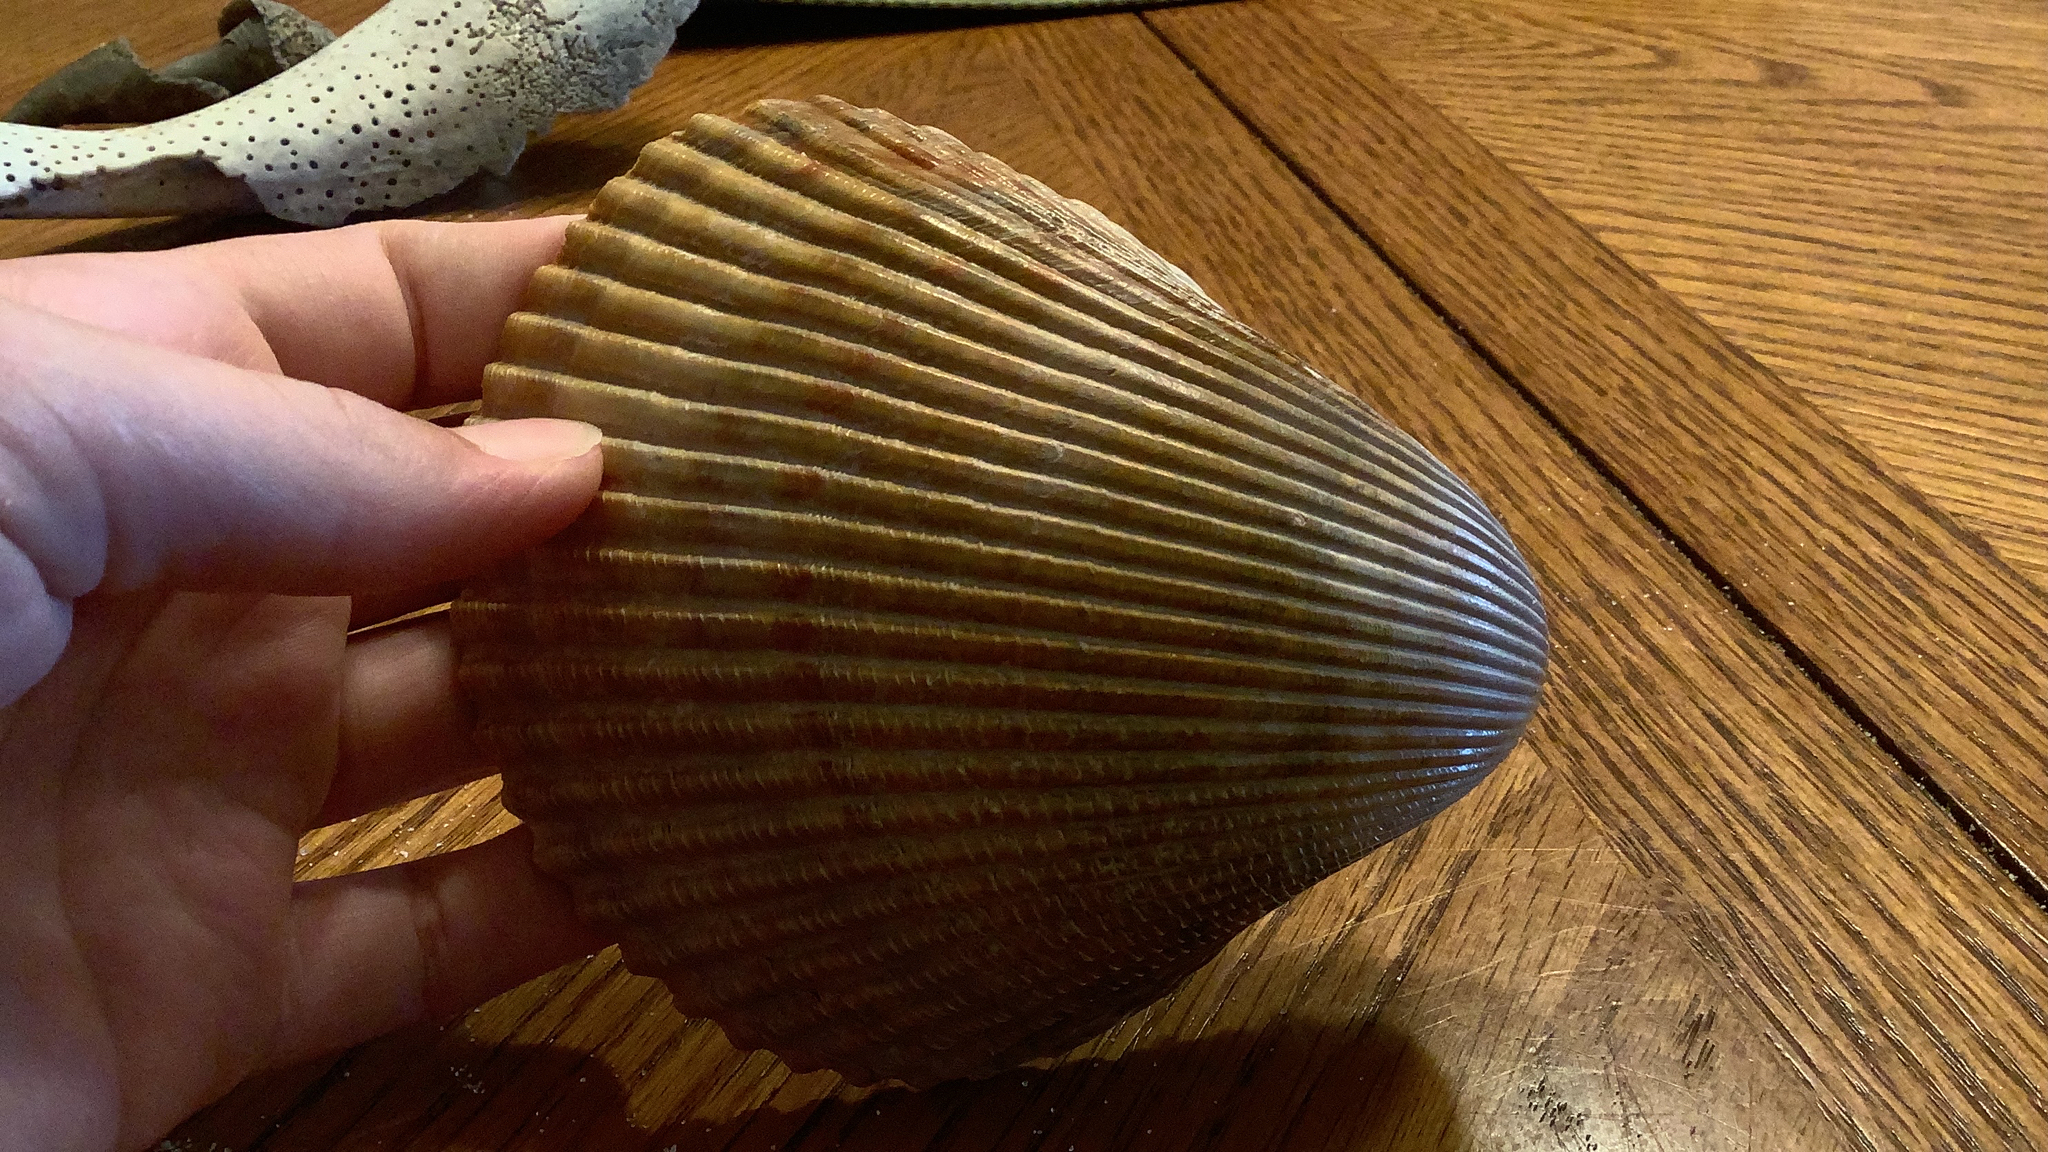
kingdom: Animalia
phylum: Mollusca
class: Bivalvia
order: Cardiida
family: Cardiidae
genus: Dinocardium
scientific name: Dinocardium robustum
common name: Atlantic giant cockle
